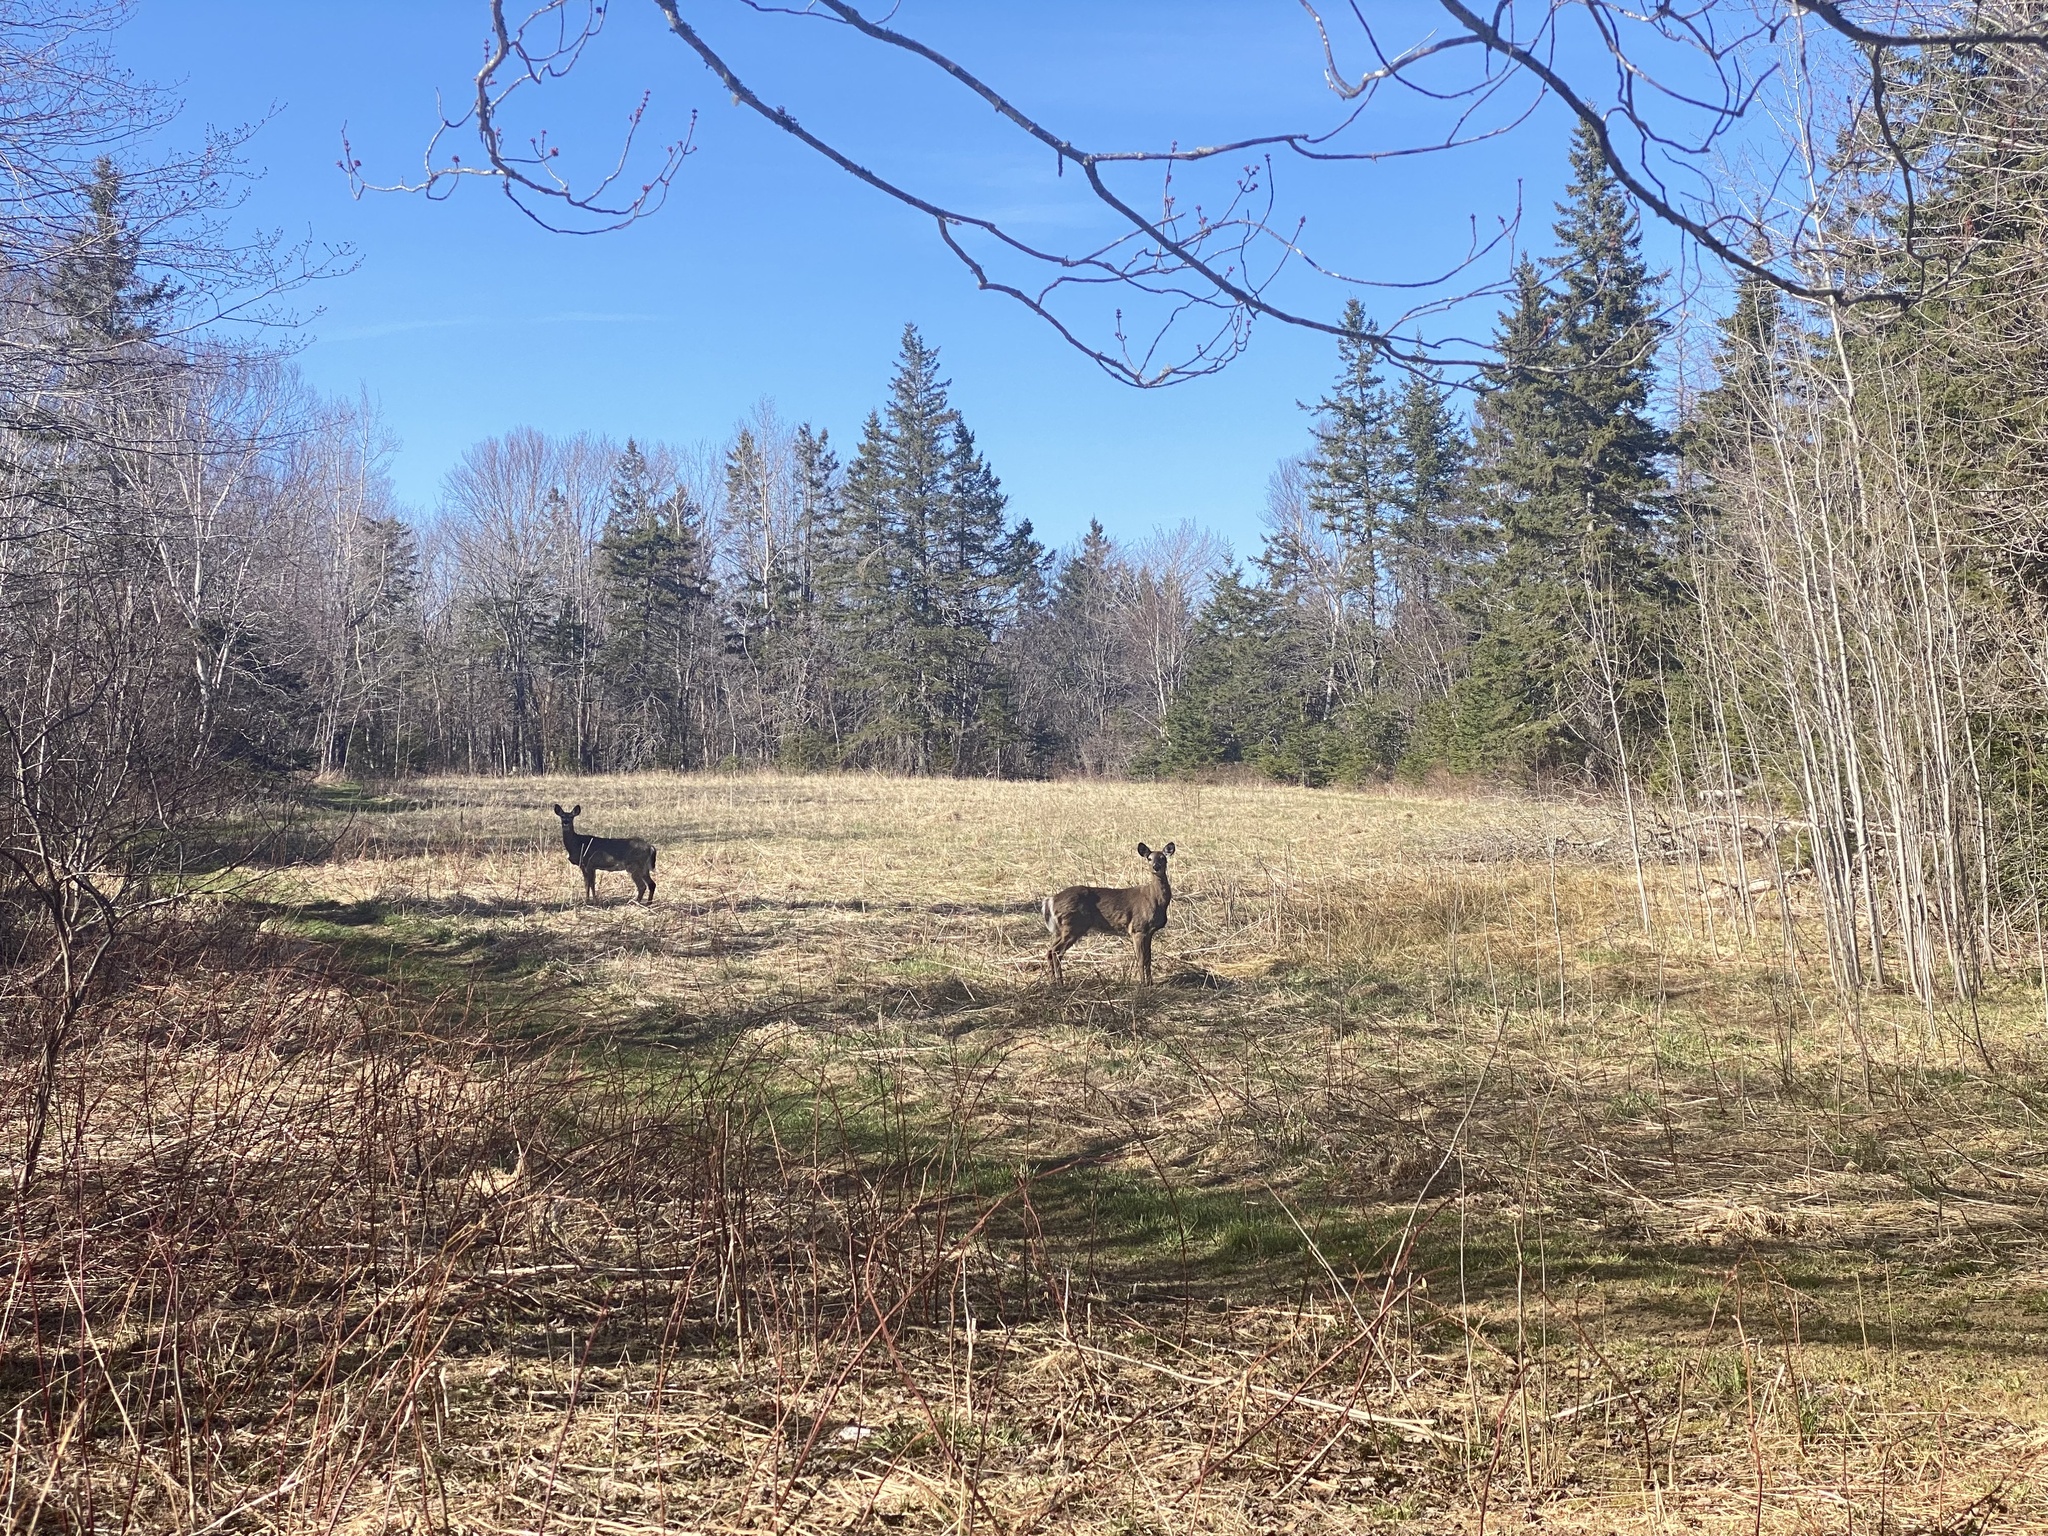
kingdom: Animalia
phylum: Chordata
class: Mammalia
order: Artiodactyla
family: Cervidae
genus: Odocoileus
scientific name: Odocoileus virginianus
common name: White-tailed deer
